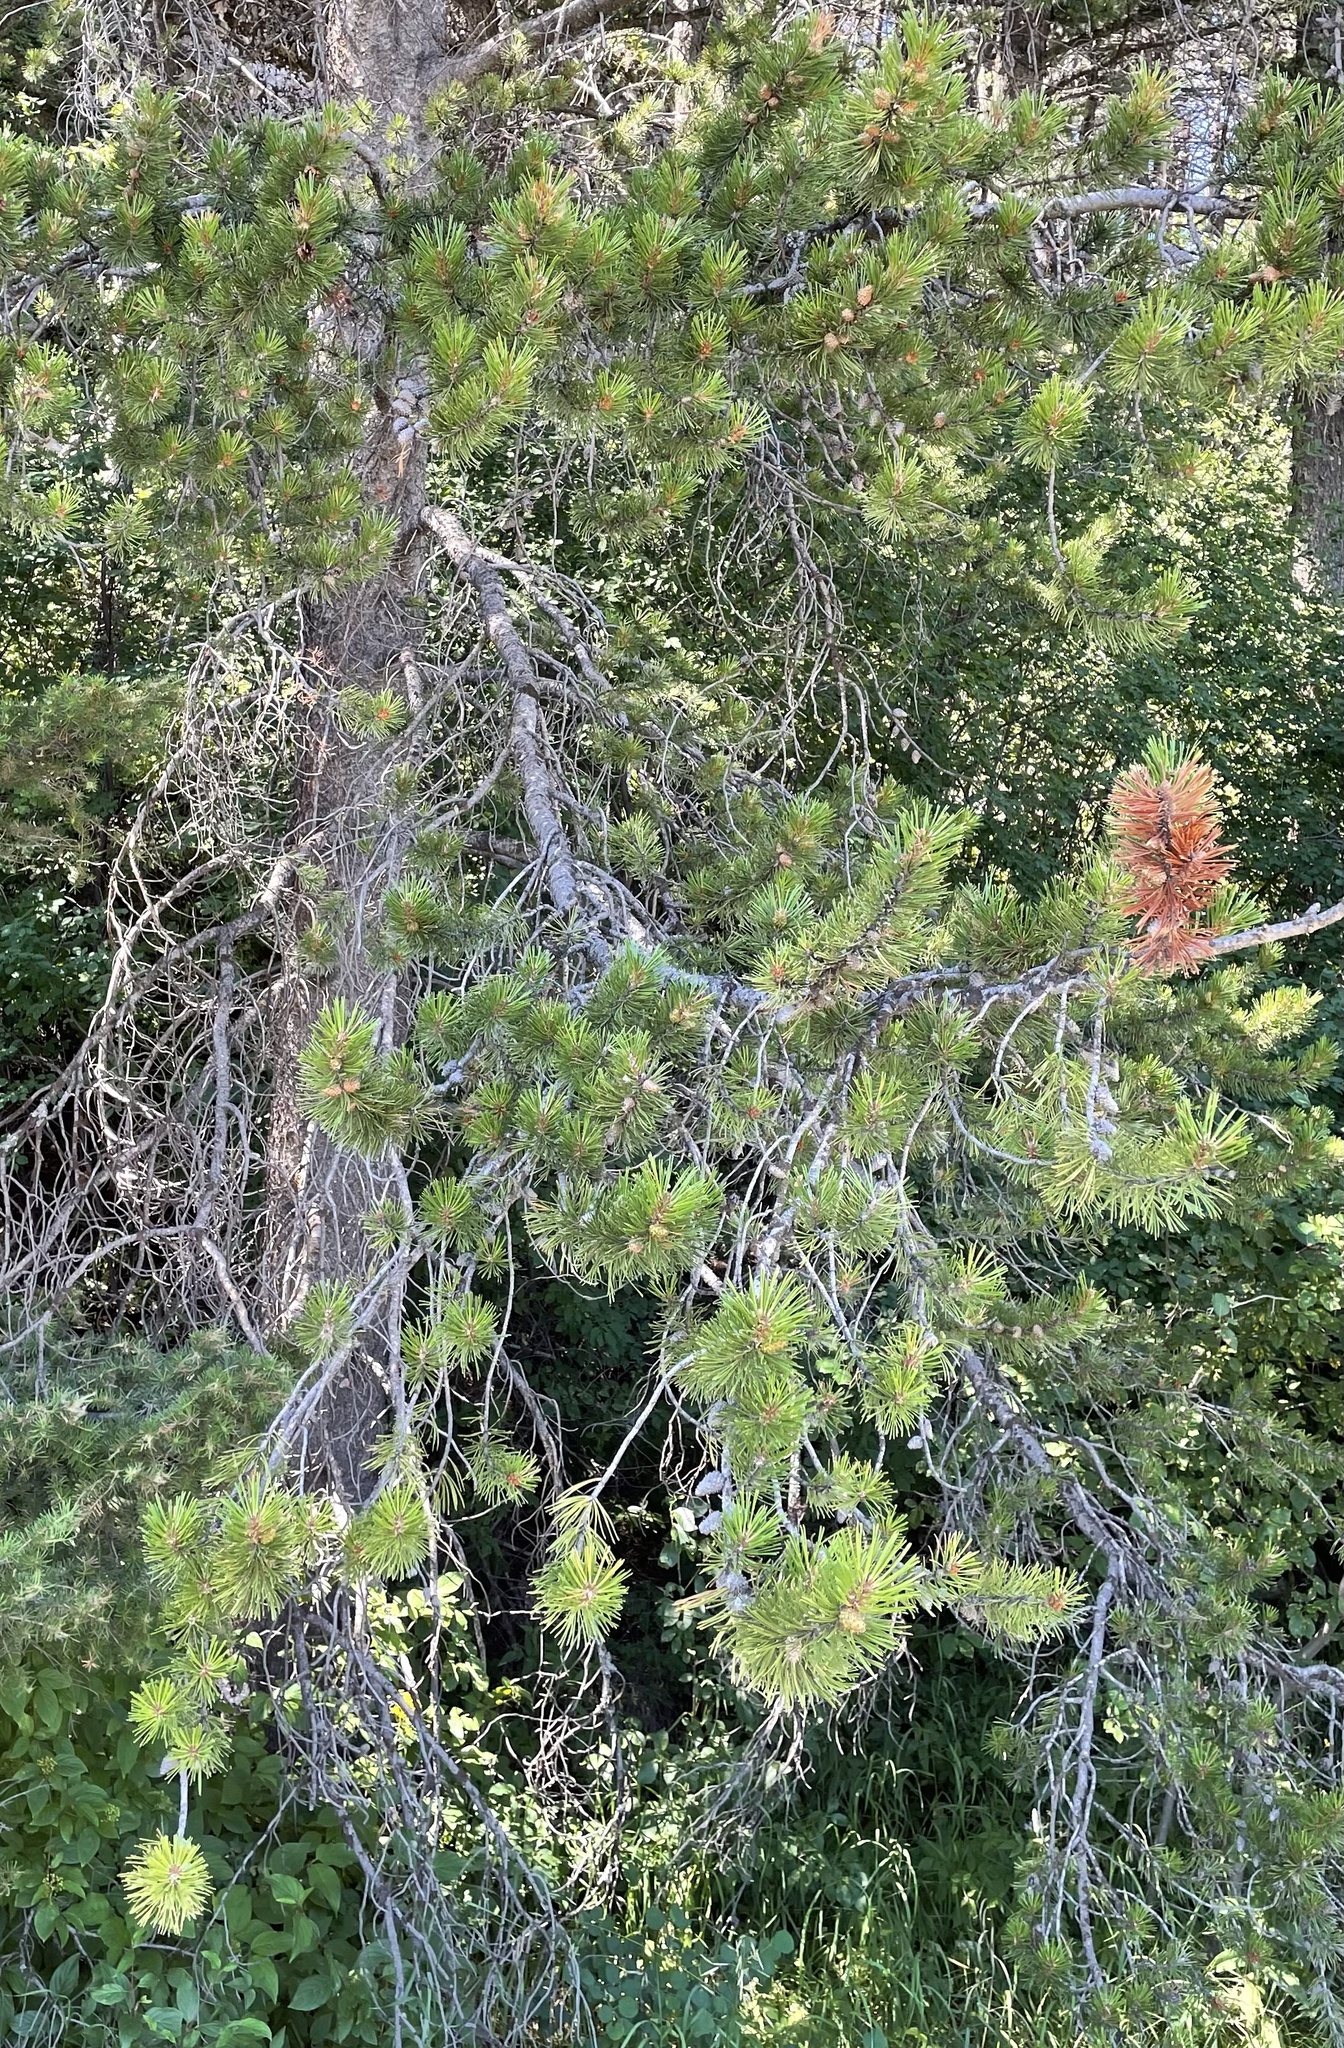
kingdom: Plantae
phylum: Tracheophyta
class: Pinopsida
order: Pinales
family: Pinaceae
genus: Pinus
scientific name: Pinus contorta
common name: Lodgepole pine
